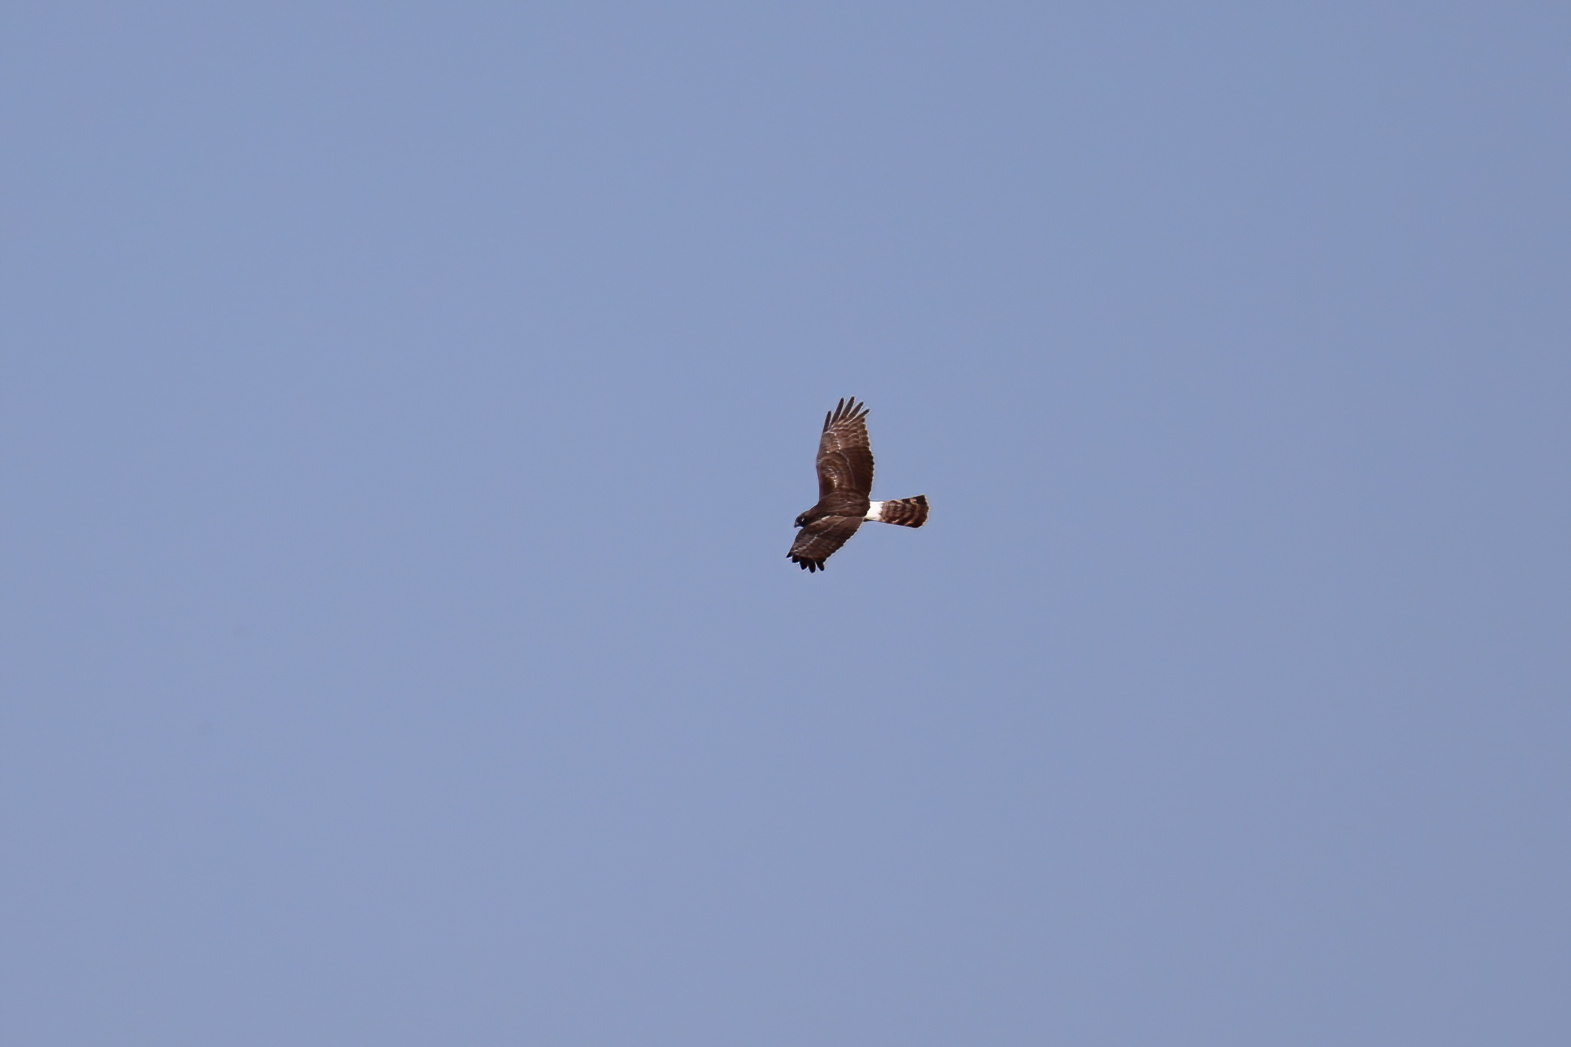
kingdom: Animalia
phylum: Chordata
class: Aves
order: Accipitriformes
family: Accipitridae
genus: Circus
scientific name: Circus cyaneus
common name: Hen harrier
